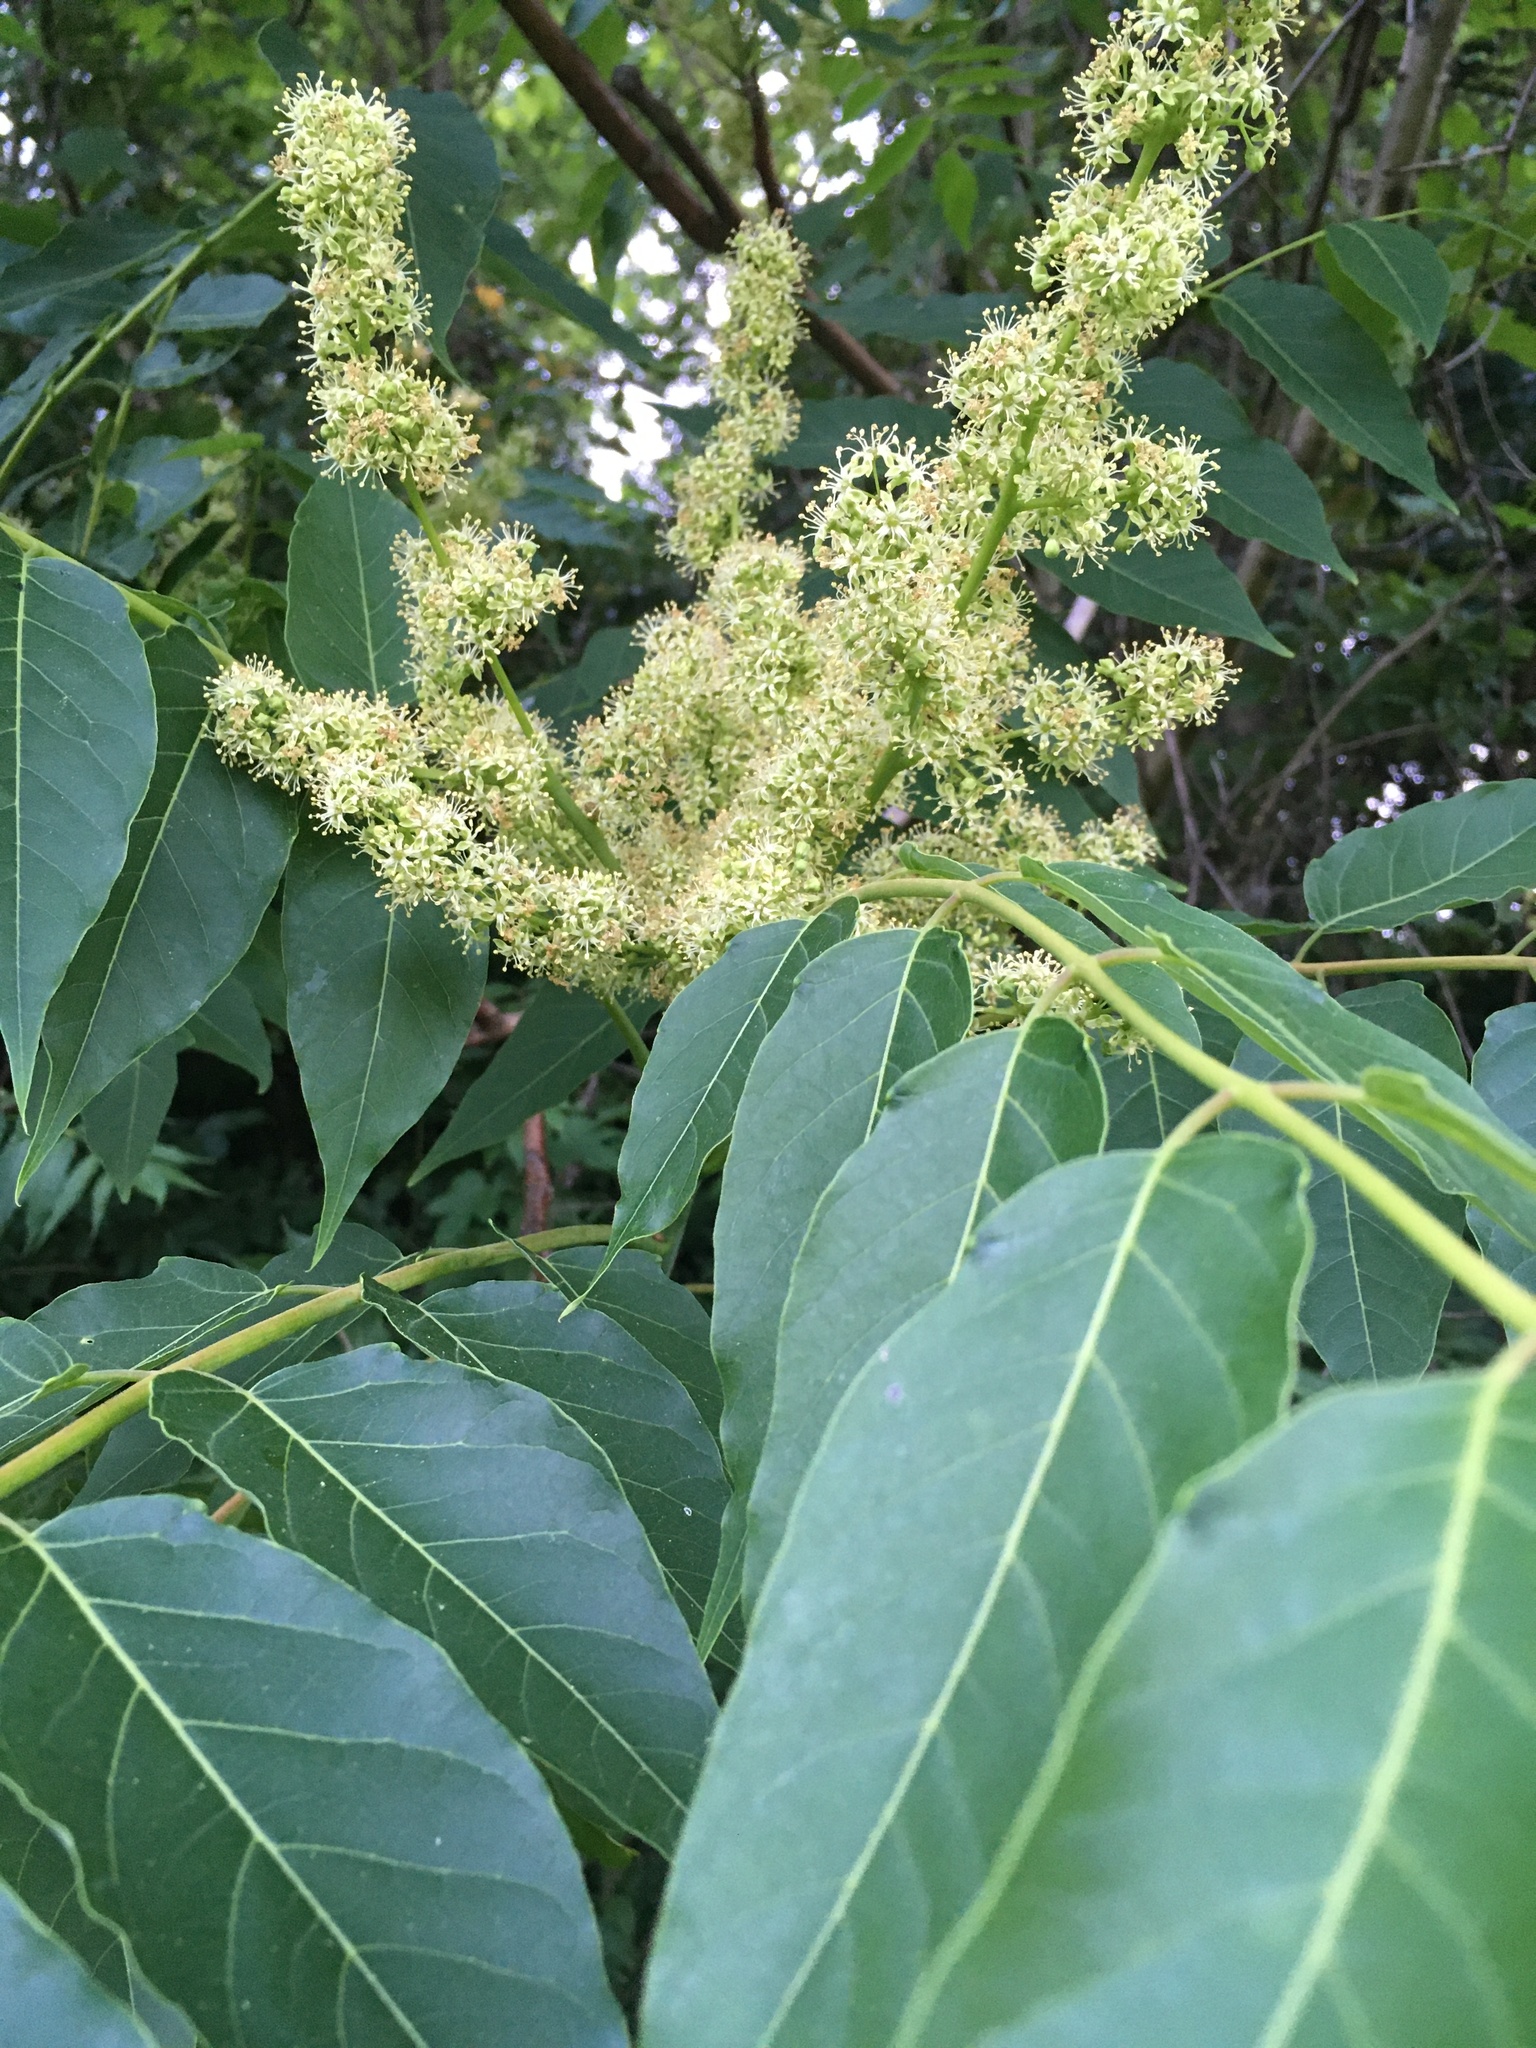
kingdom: Plantae
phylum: Tracheophyta
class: Magnoliopsida
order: Sapindales
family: Simaroubaceae
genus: Ailanthus
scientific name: Ailanthus altissima
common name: Tree-of-heaven
